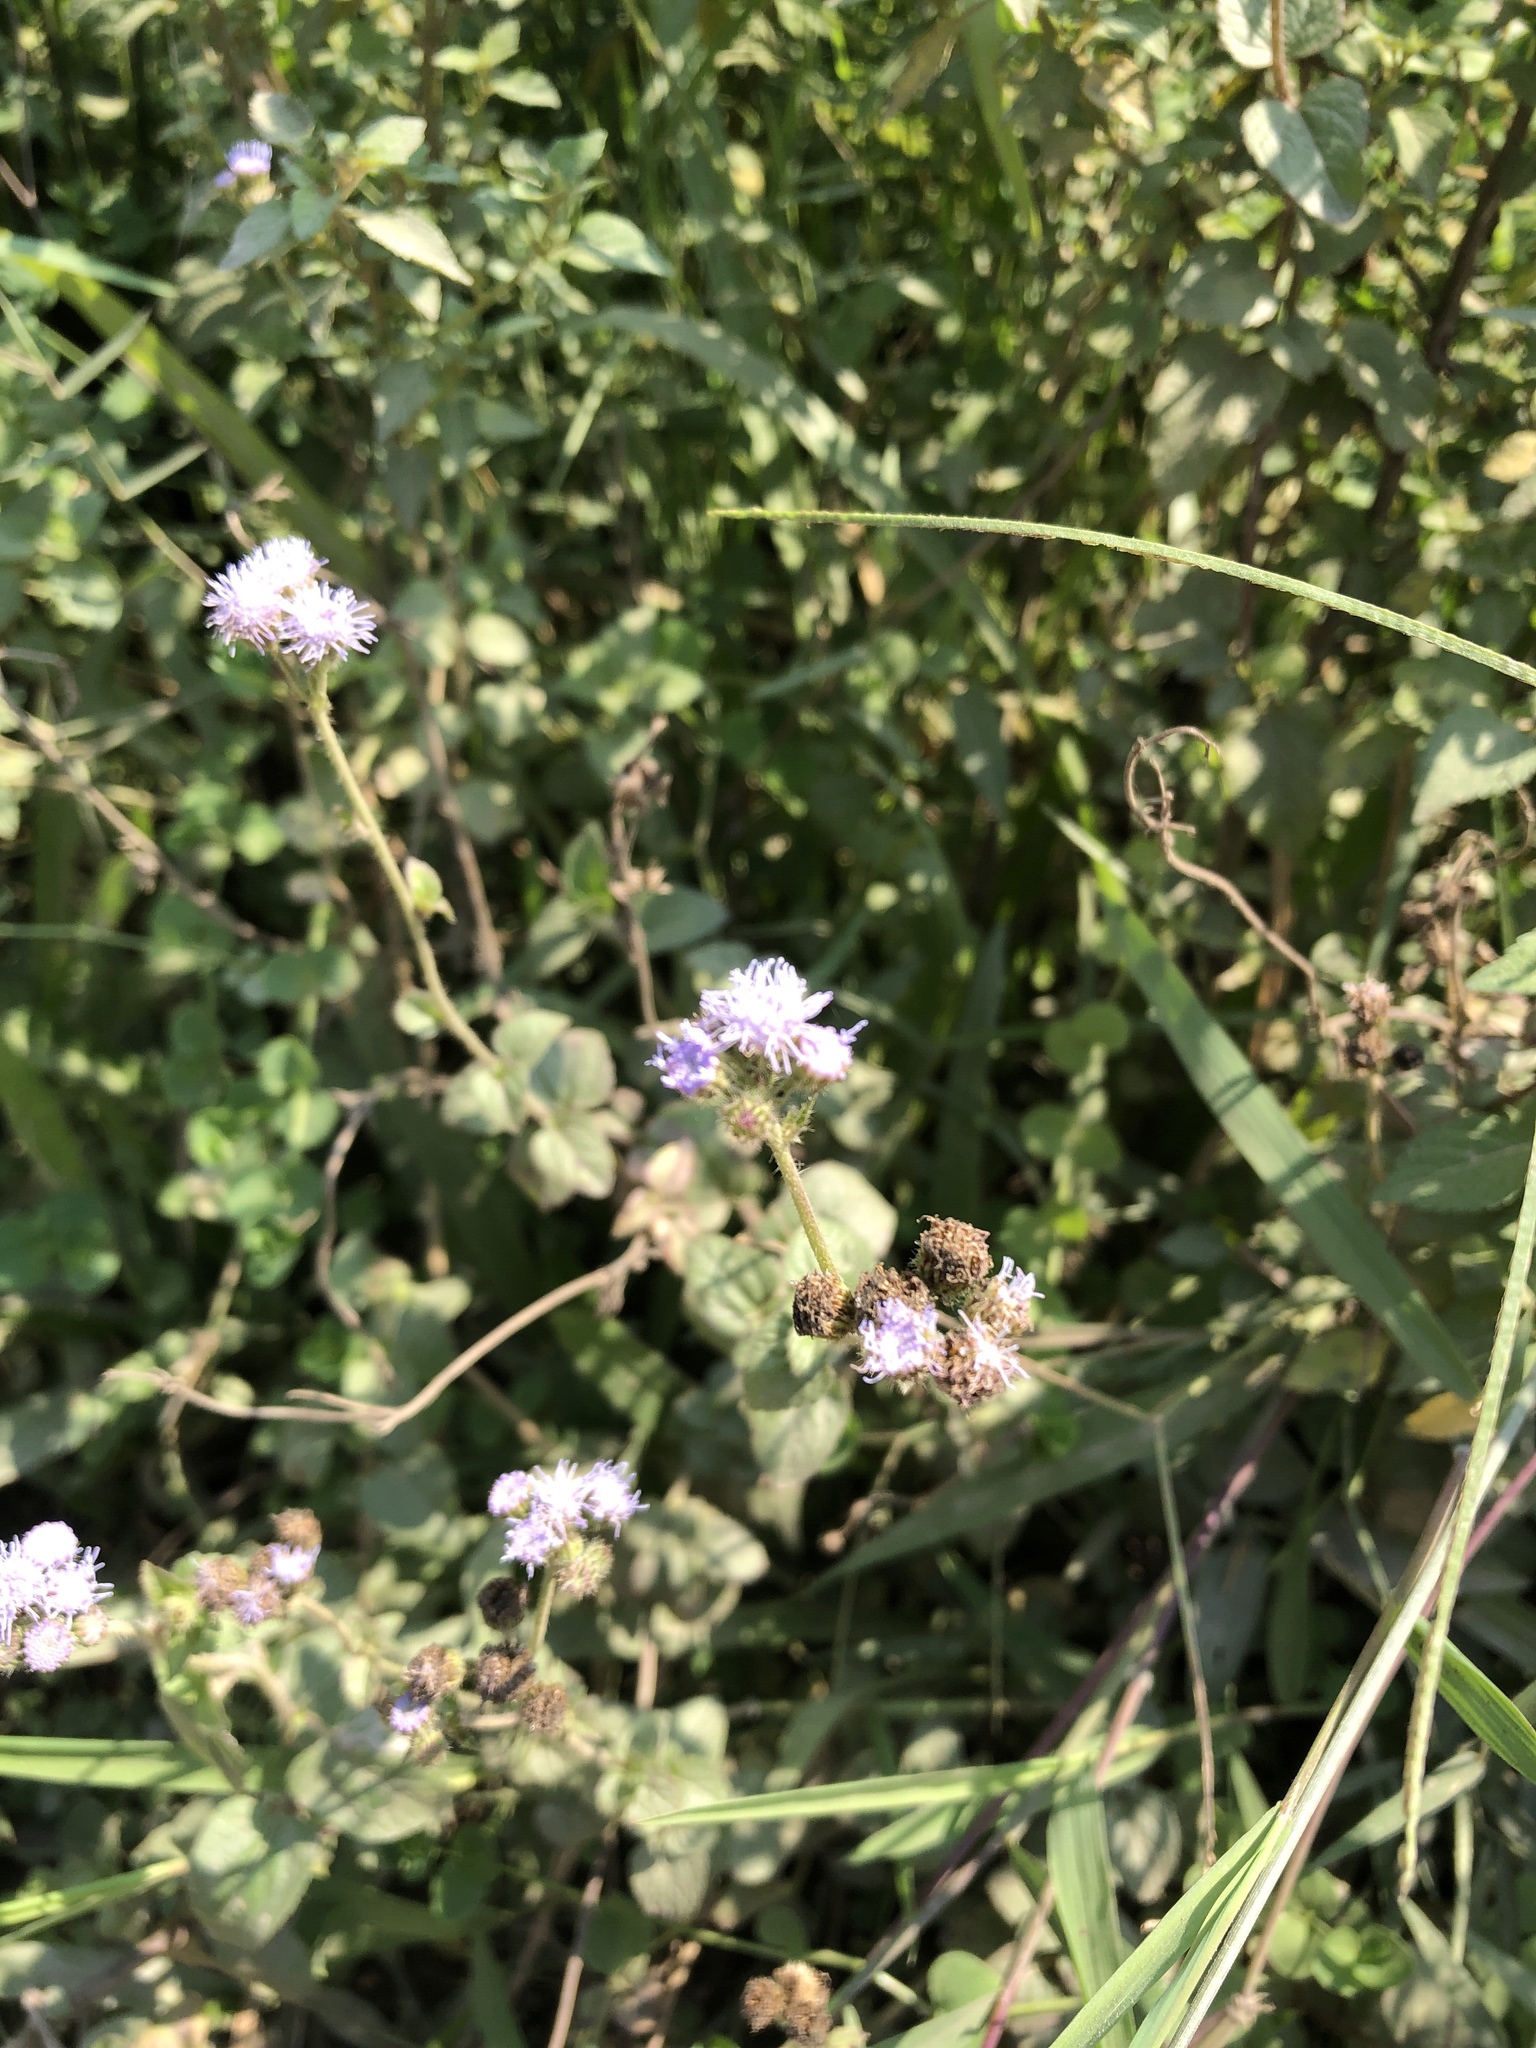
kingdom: Plantae
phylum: Tracheophyta
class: Magnoliopsida
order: Asterales
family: Asteraceae
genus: Ageratum
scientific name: Ageratum houstonianum
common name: Bluemink
